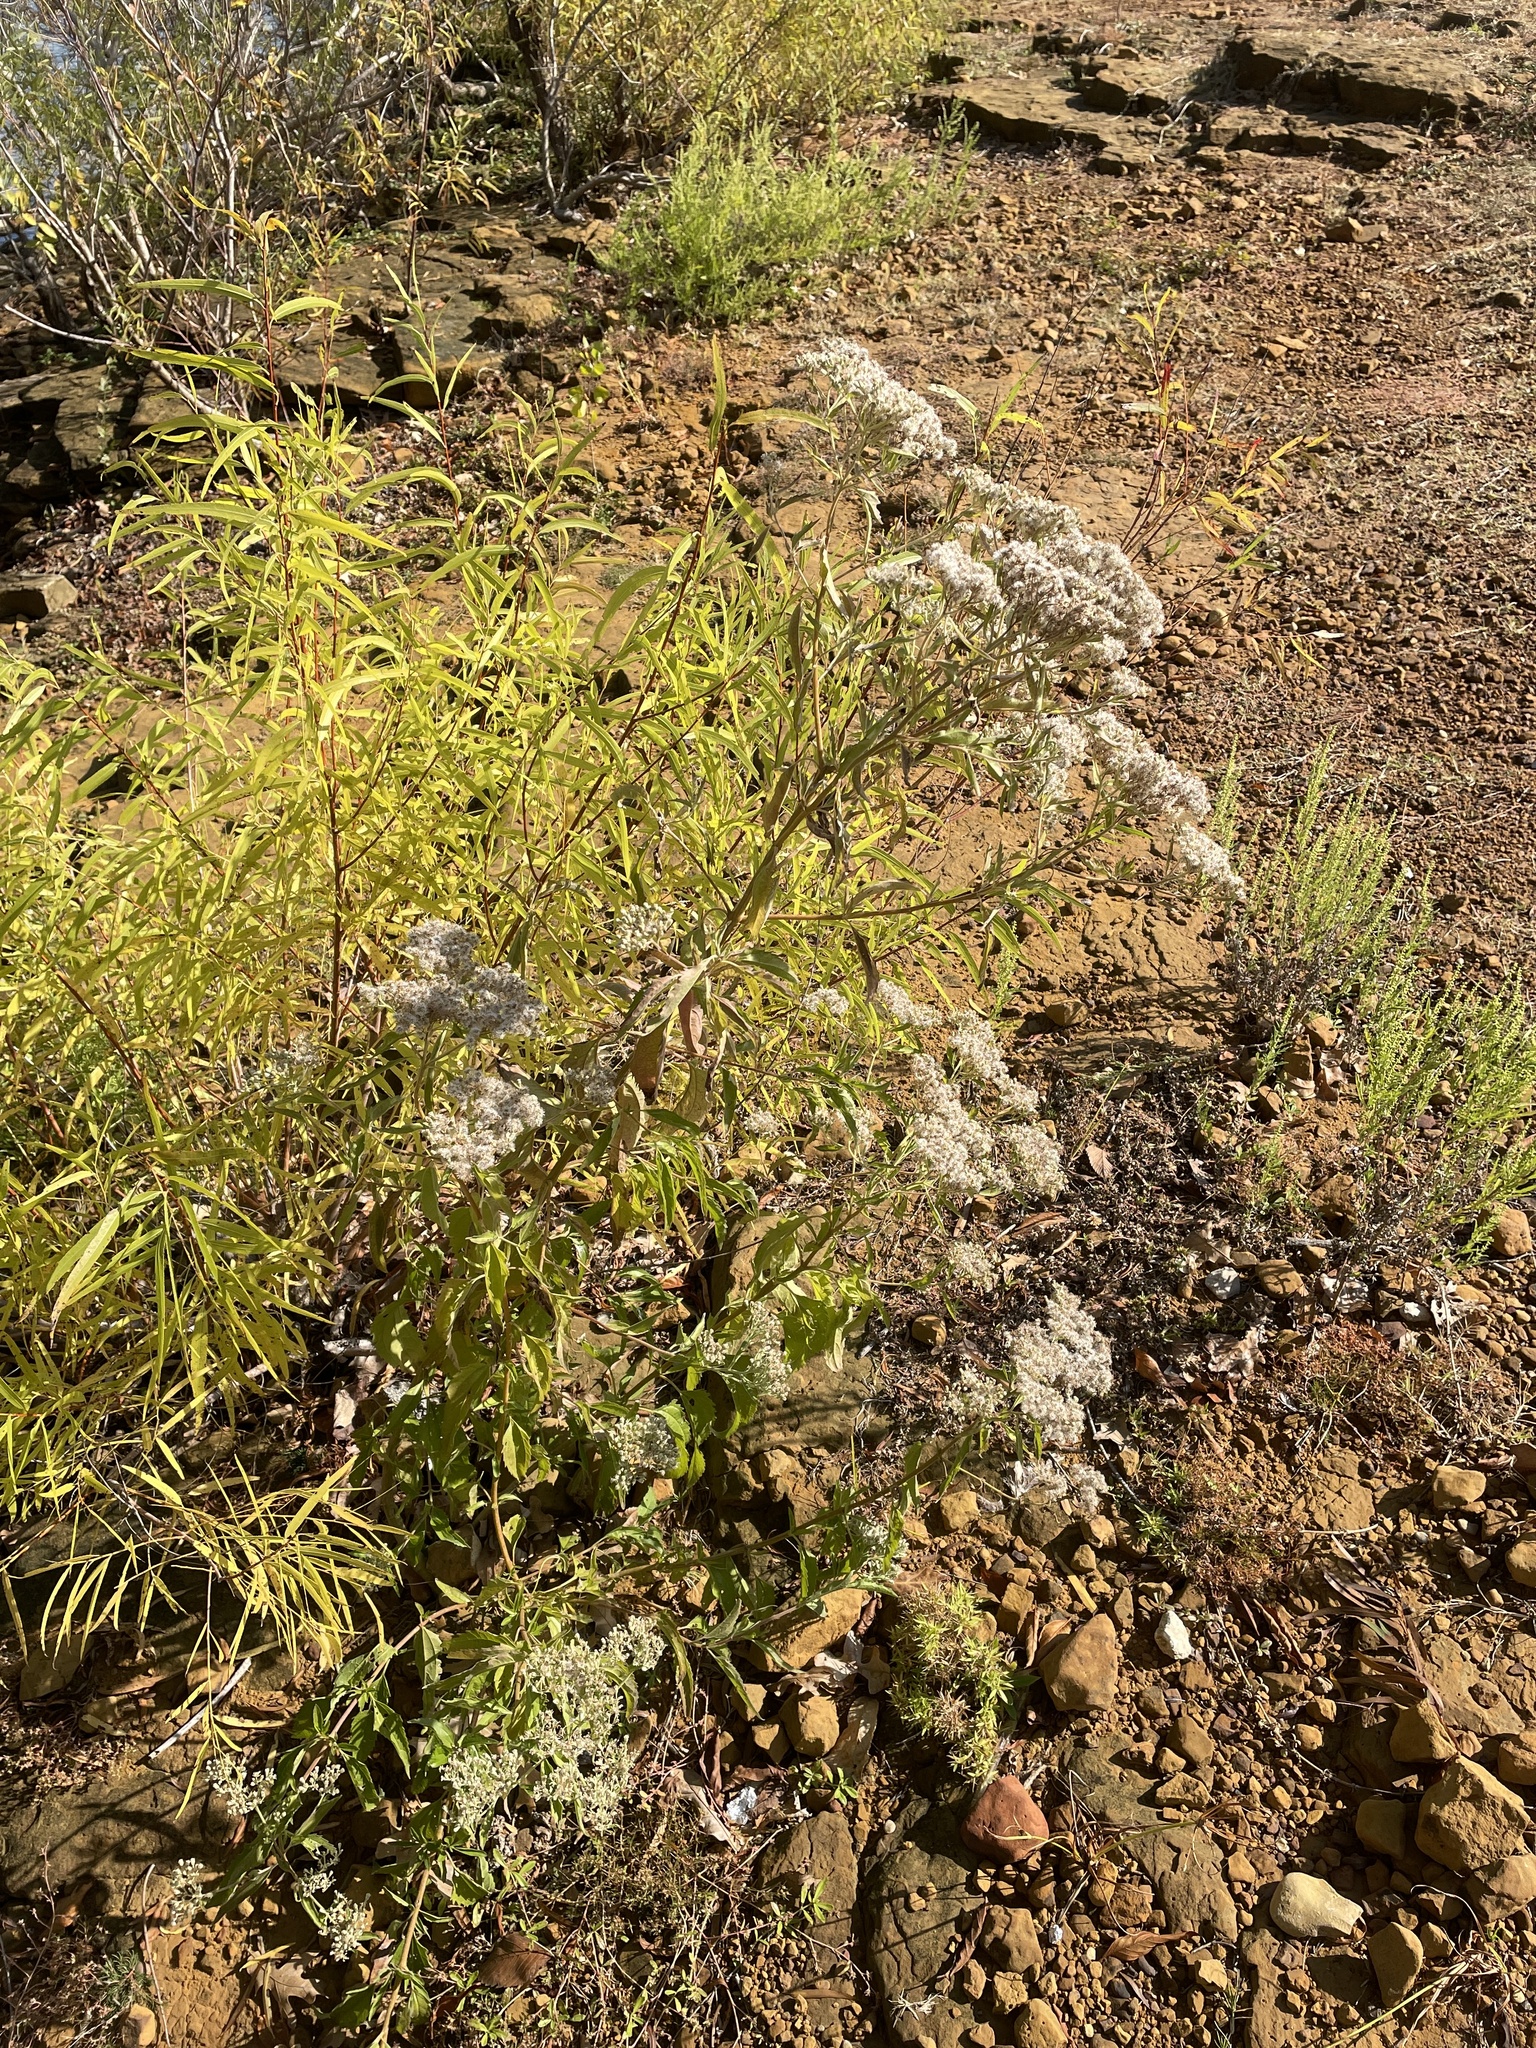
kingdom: Plantae
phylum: Tracheophyta
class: Magnoliopsida
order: Asterales
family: Asteraceae
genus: Eupatorium
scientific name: Eupatorium serotinum
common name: Late boneset
